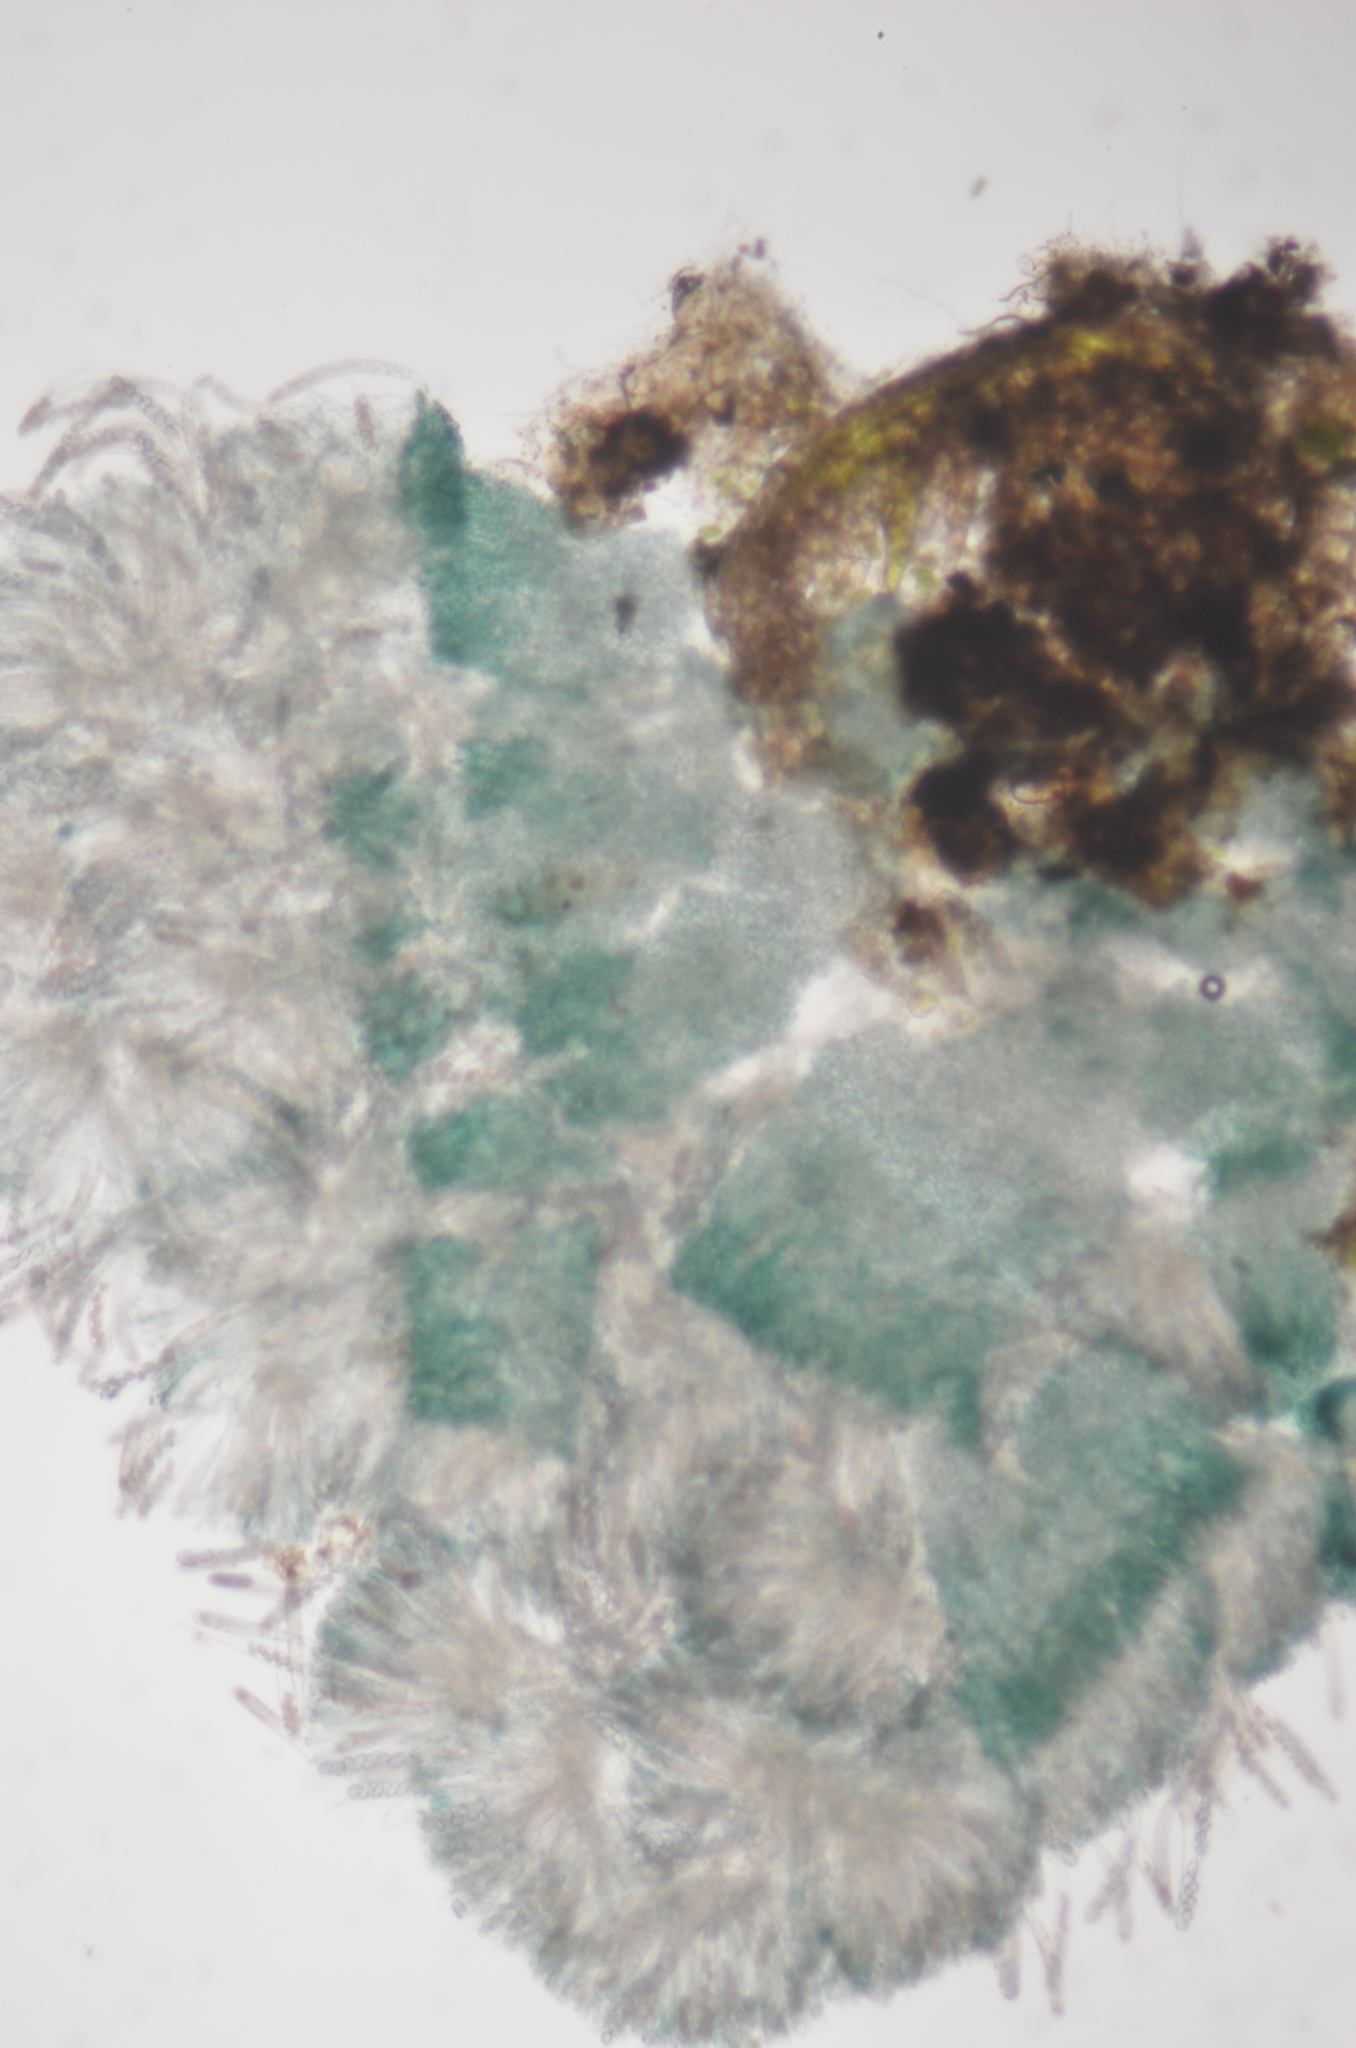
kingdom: Fungi
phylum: Ascomycota
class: Leotiomycetes
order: Leotiales
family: Mniaeciaceae
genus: Mniaecia
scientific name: Mniaecia jungermanniae
